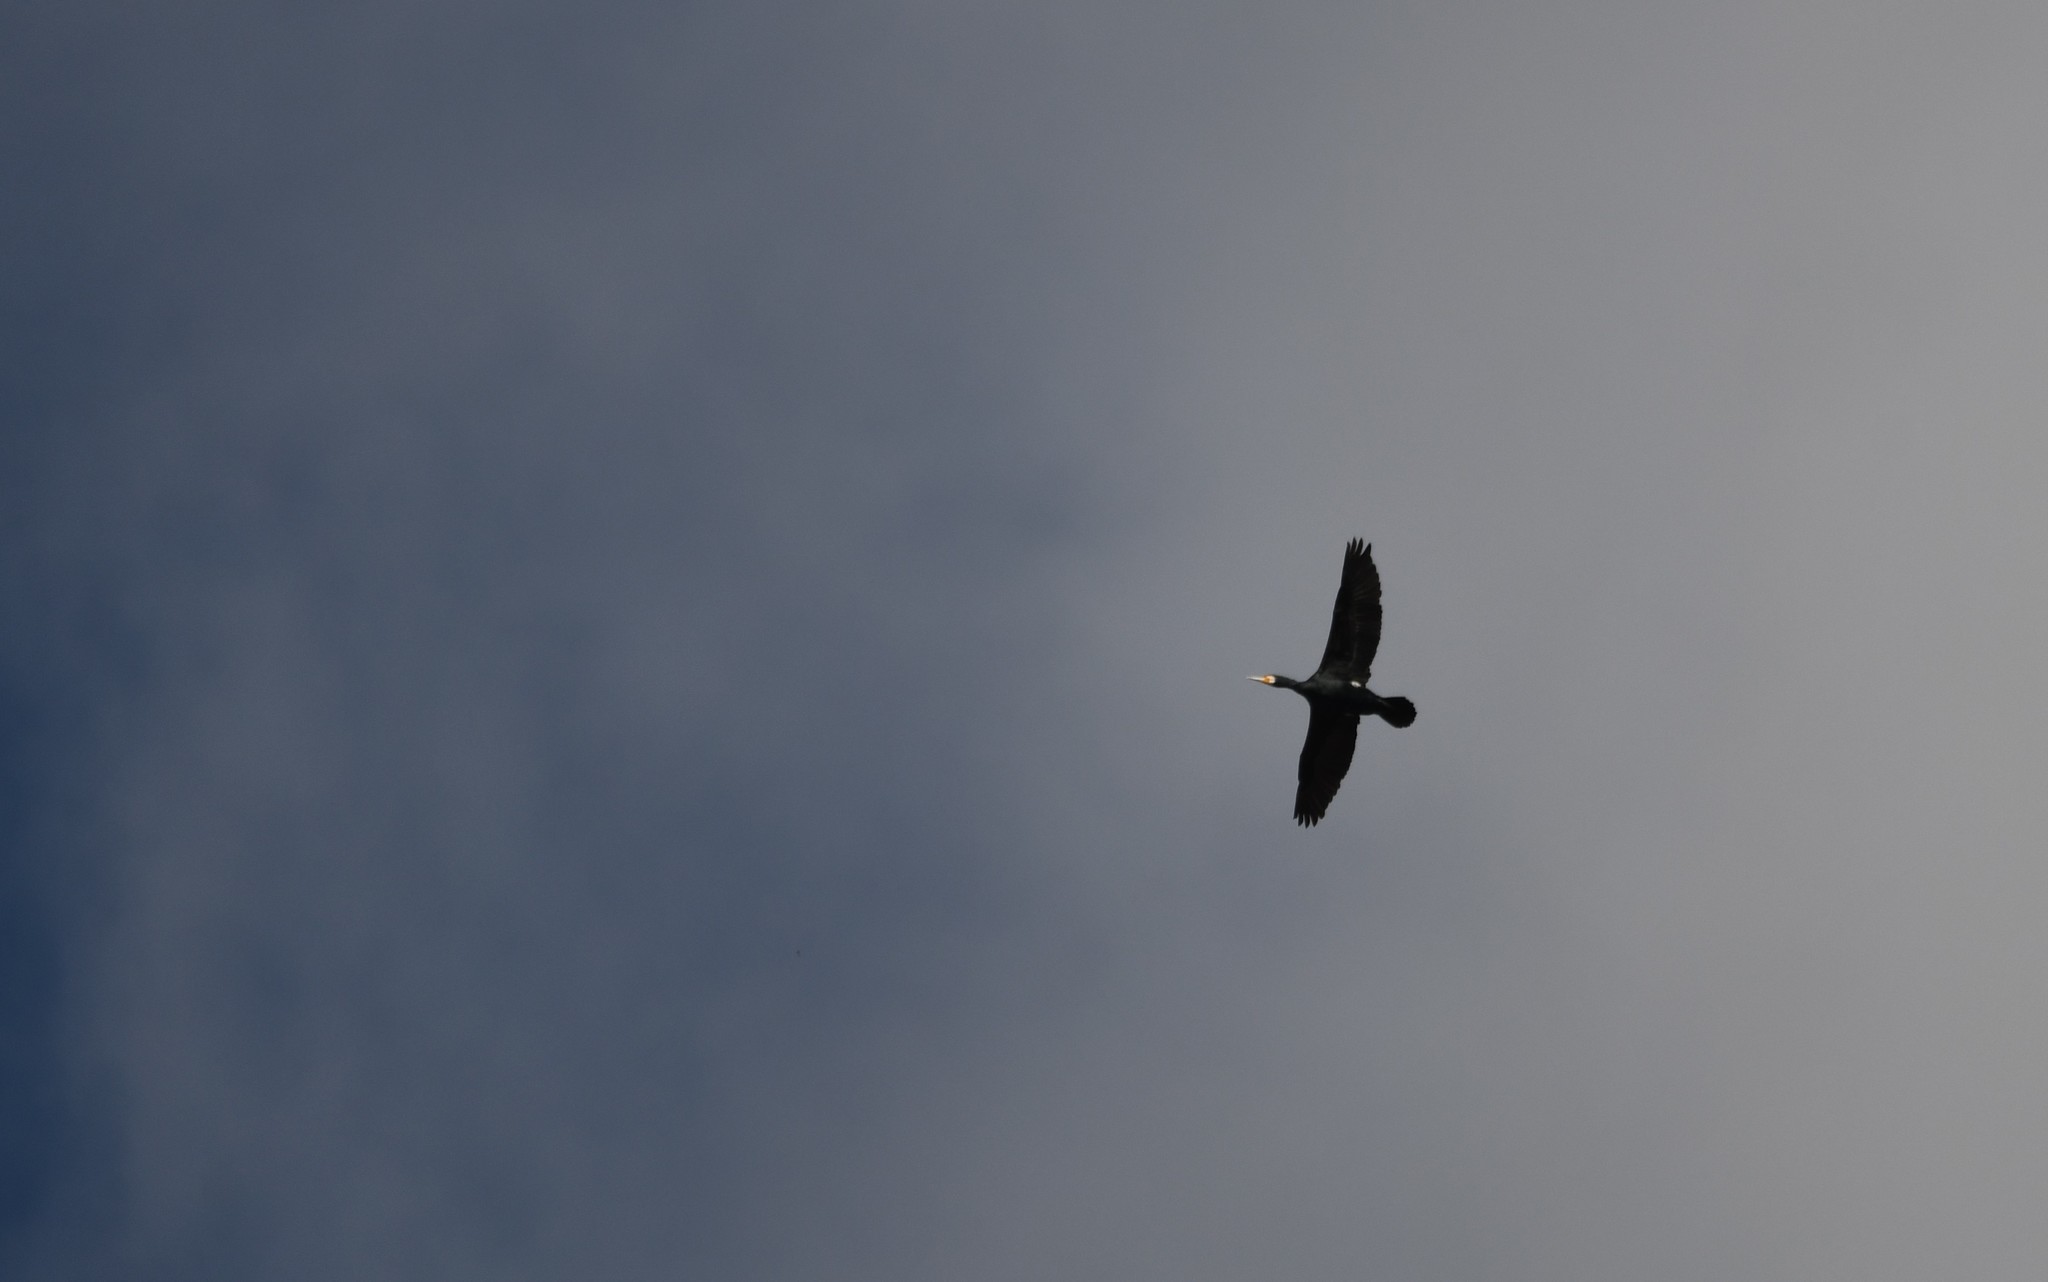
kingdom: Animalia
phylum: Chordata
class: Aves
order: Suliformes
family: Phalacrocoracidae
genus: Phalacrocorax
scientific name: Phalacrocorax carbo
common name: Great cormorant
